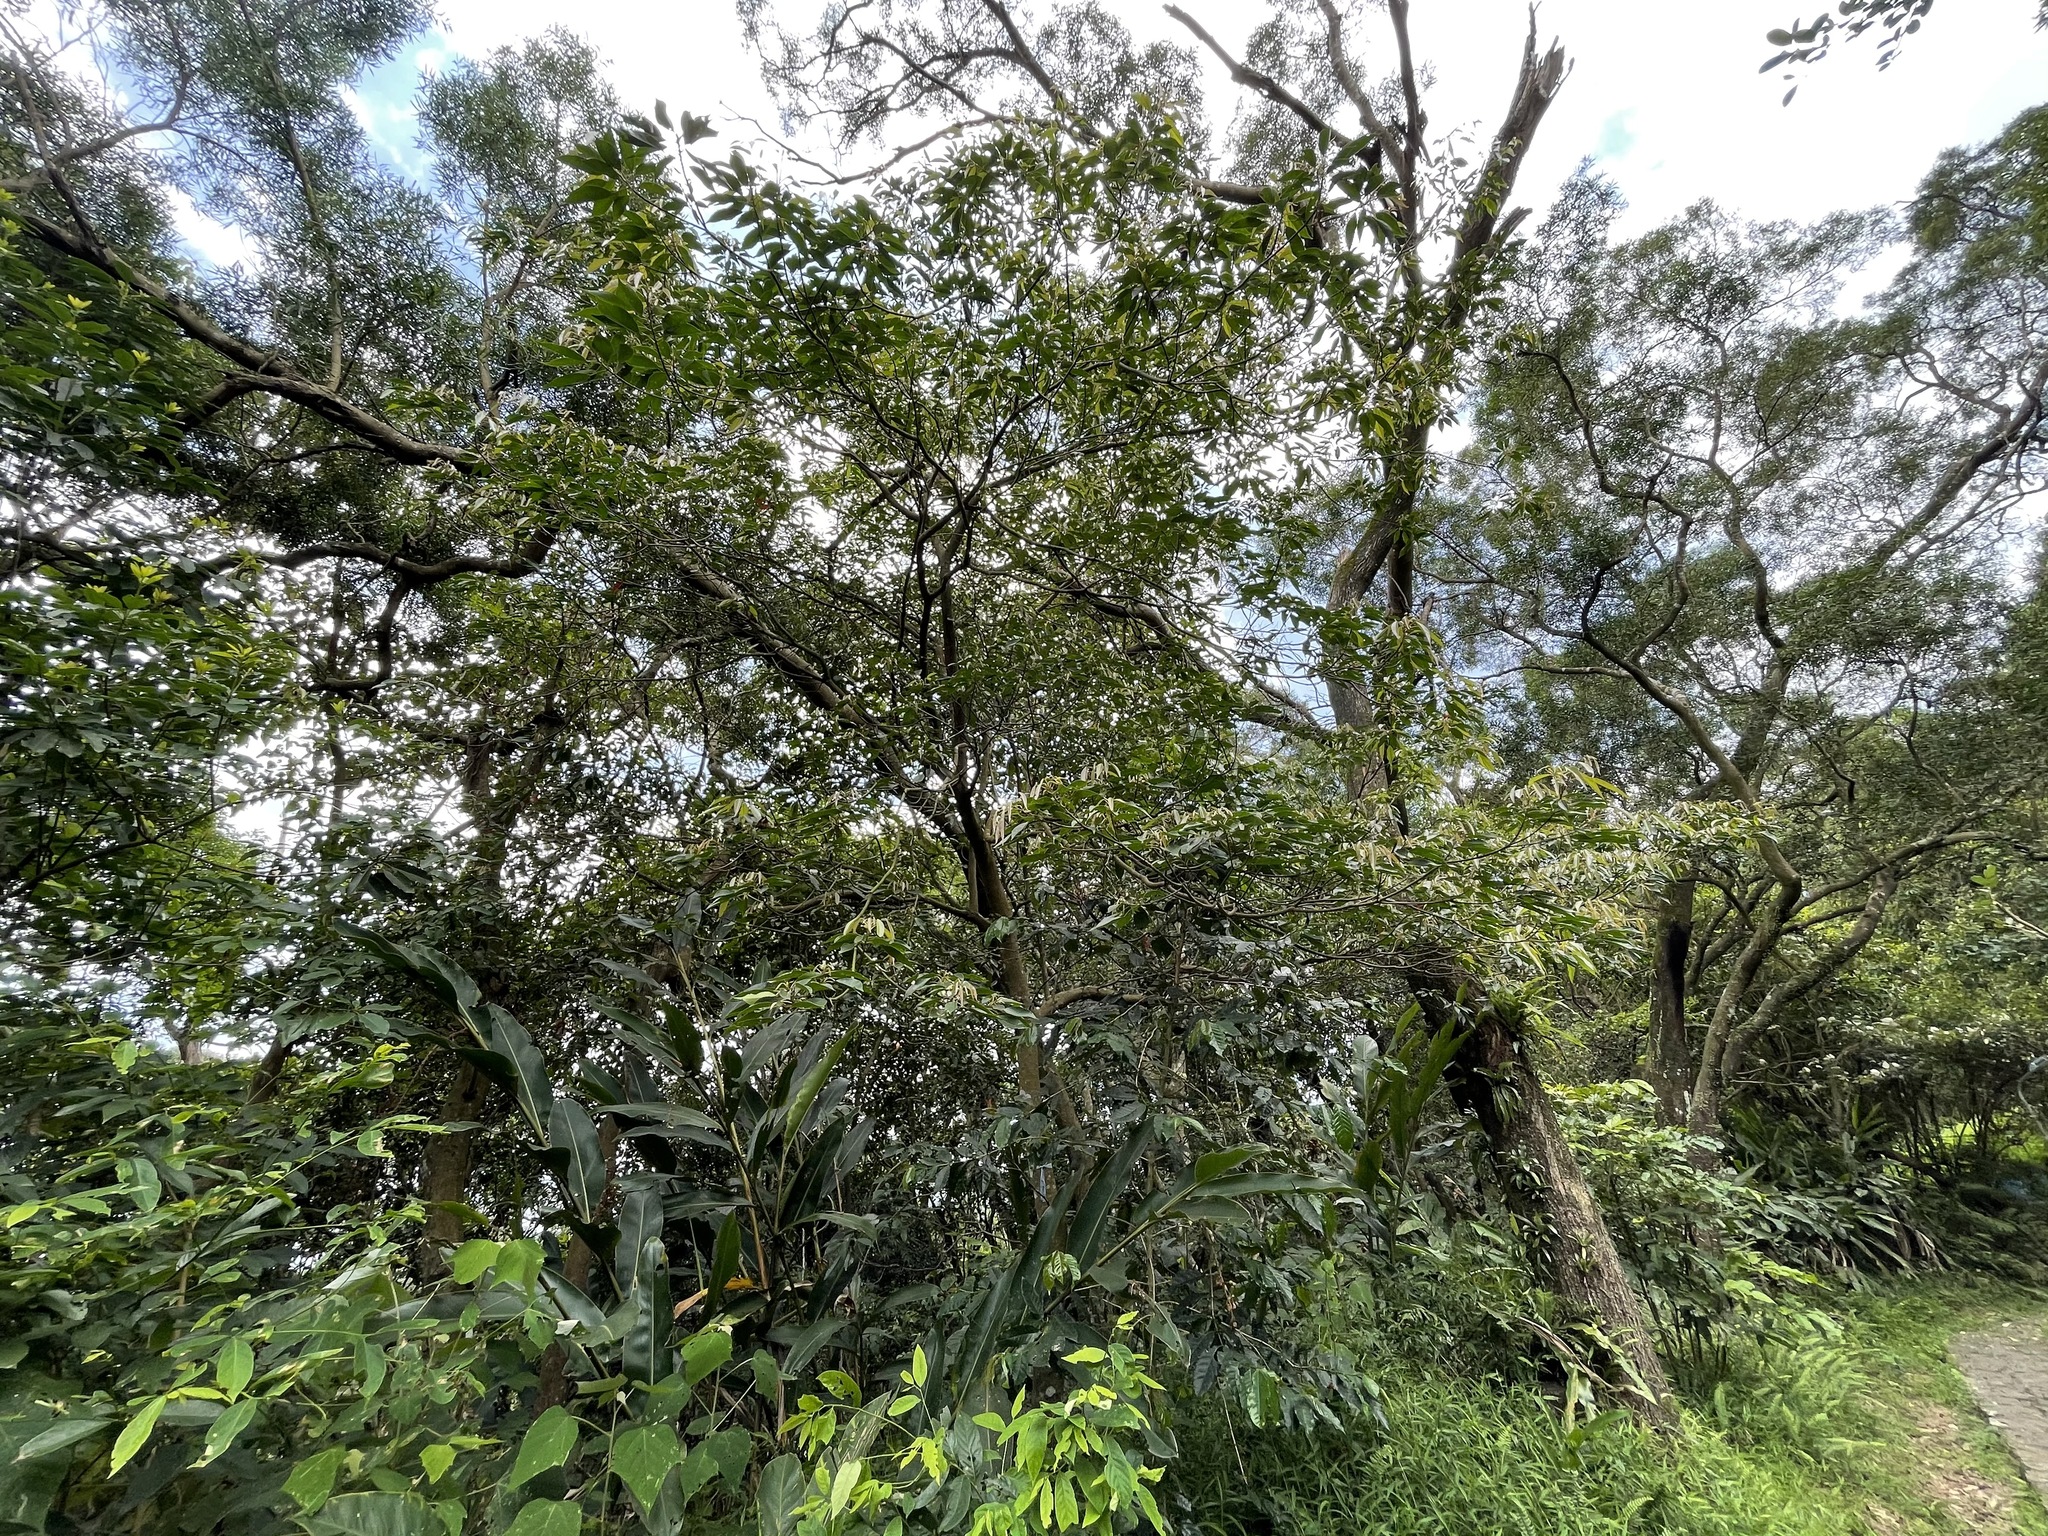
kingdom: Plantae
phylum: Tracheophyta
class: Magnoliopsida
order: Oxalidales
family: Elaeocarpaceae
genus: Elaeocarpus
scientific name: Elaeocarpus japonicus
